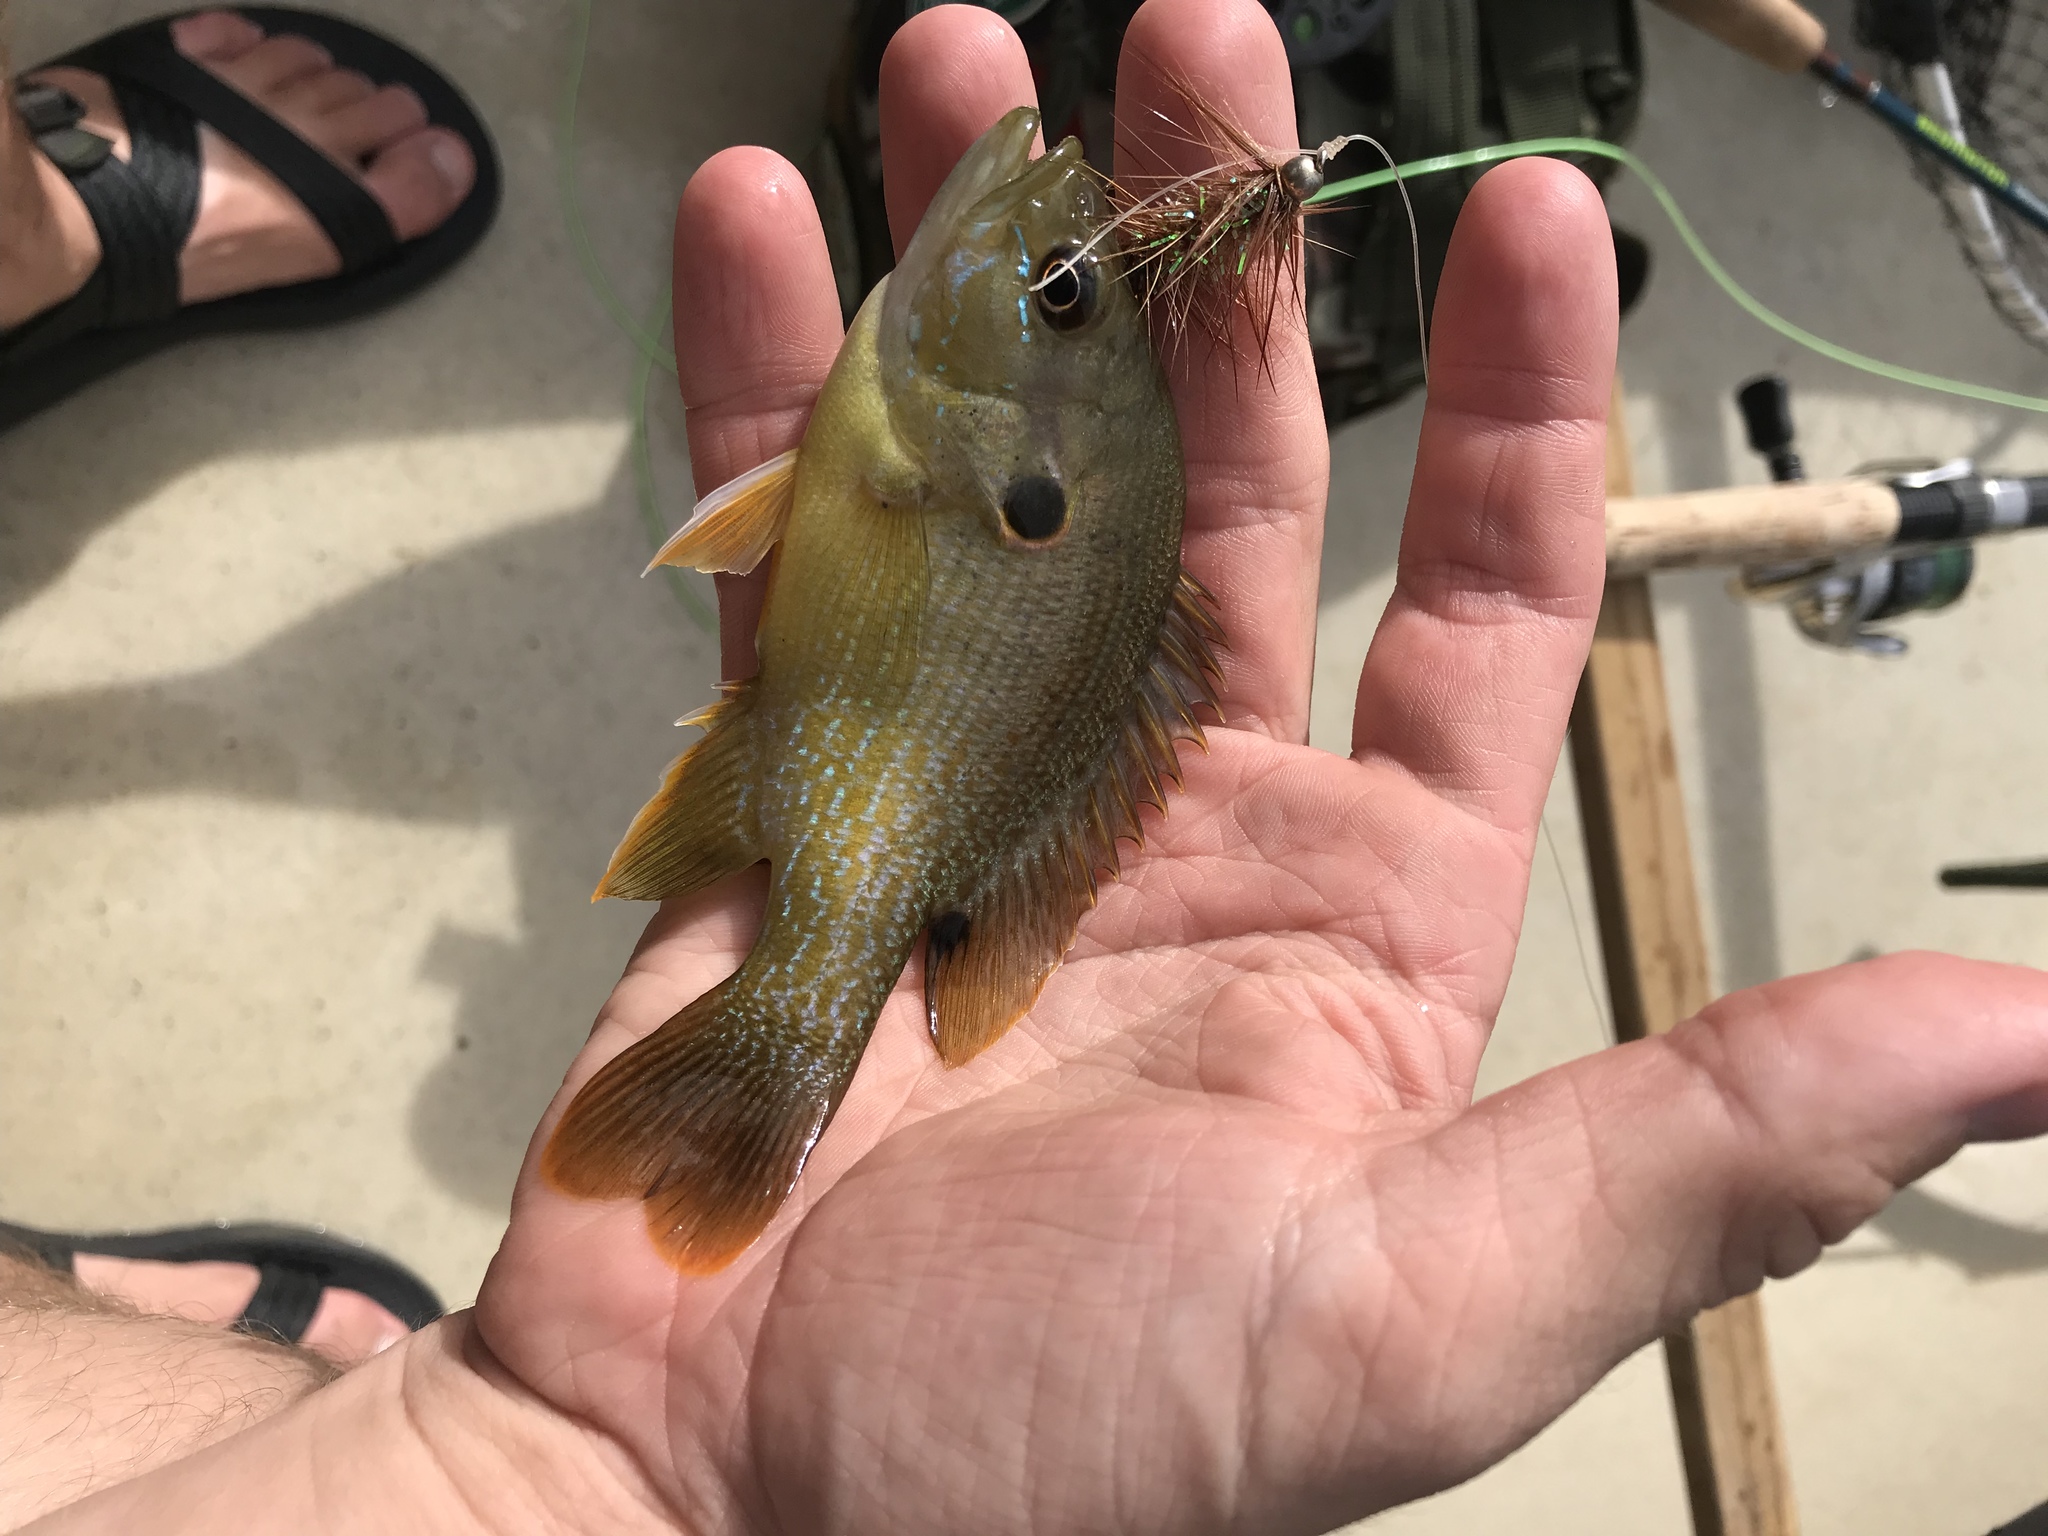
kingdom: Animalia
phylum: Chordata
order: Perciformes
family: Centrarchidae
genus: Lepomis
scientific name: Lepomis cyanellus
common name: Green sunfish
